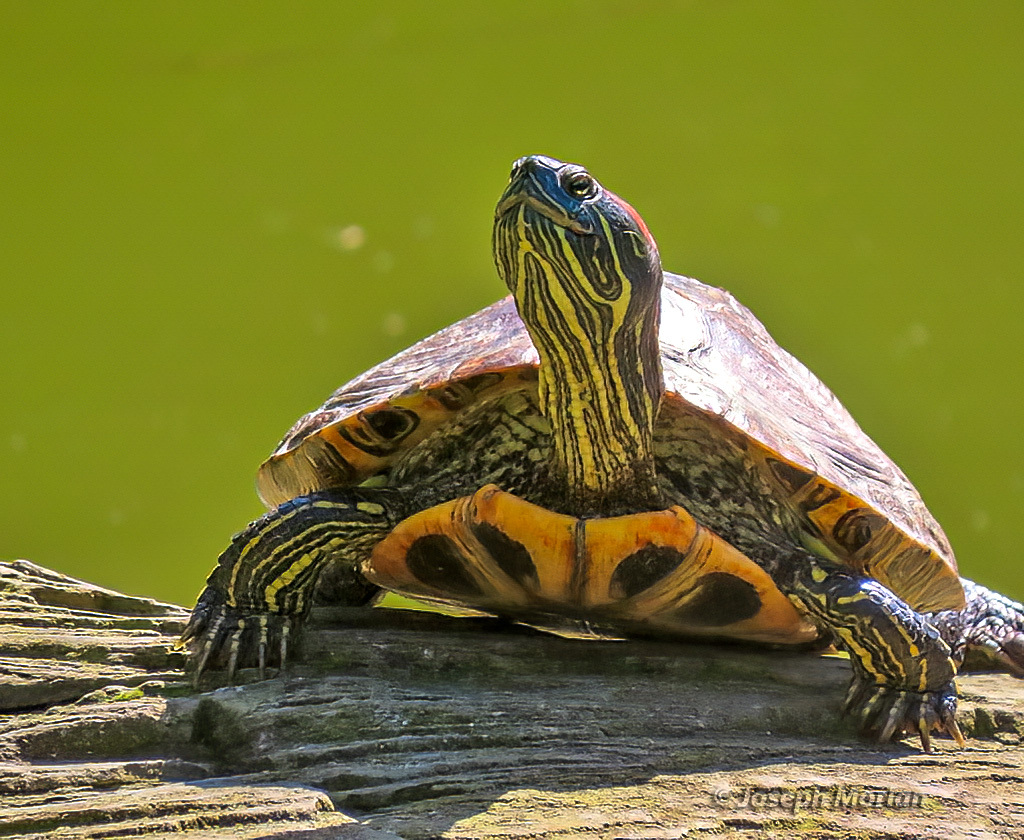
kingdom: Animalia
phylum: Chordata
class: Testudines
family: Emydidae
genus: Trachemys
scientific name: Trachemys scripta
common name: Slider
